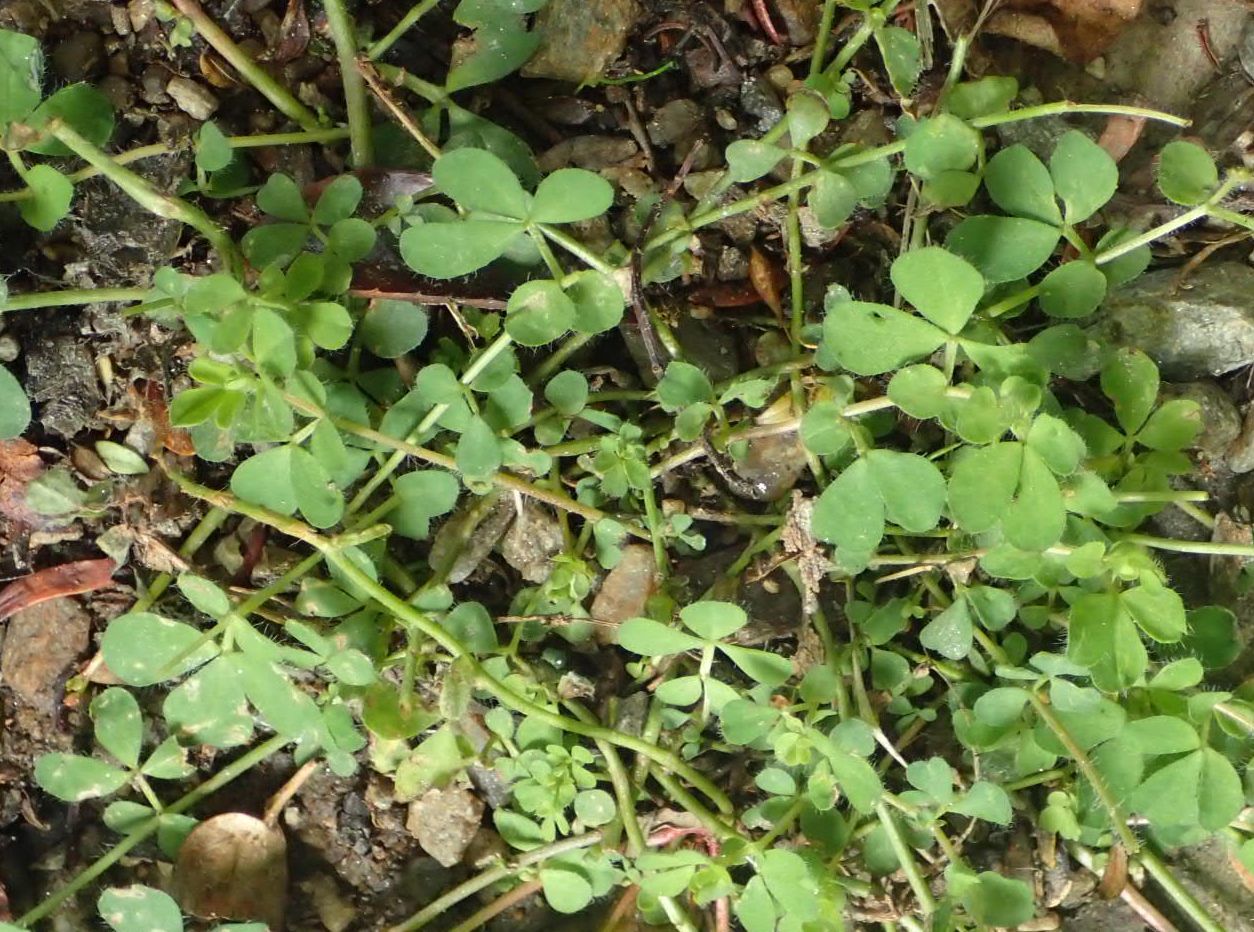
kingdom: Plantae
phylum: Tracheophyta
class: Magnoliopsida
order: Fabales
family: Fabaceae
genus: Lotus
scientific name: Lotus pedunculatus
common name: Greater birdsfoot-trefoil
